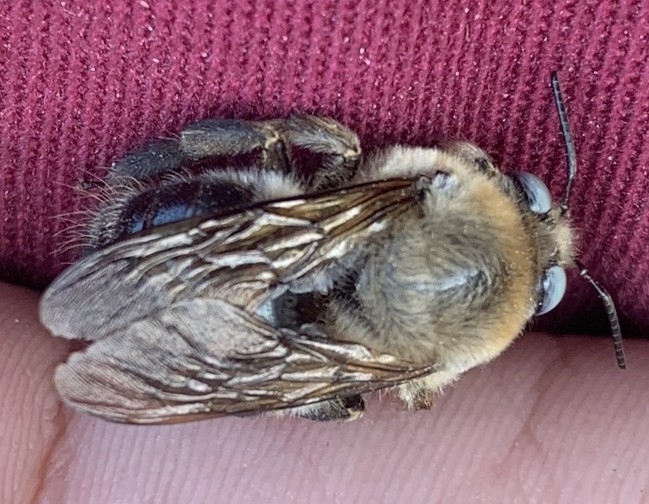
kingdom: Animalia
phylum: Arthropoda
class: Insecta
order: Hymenoptera
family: Apidae
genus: Xylocopa
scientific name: Xylocopa tabaniformis
